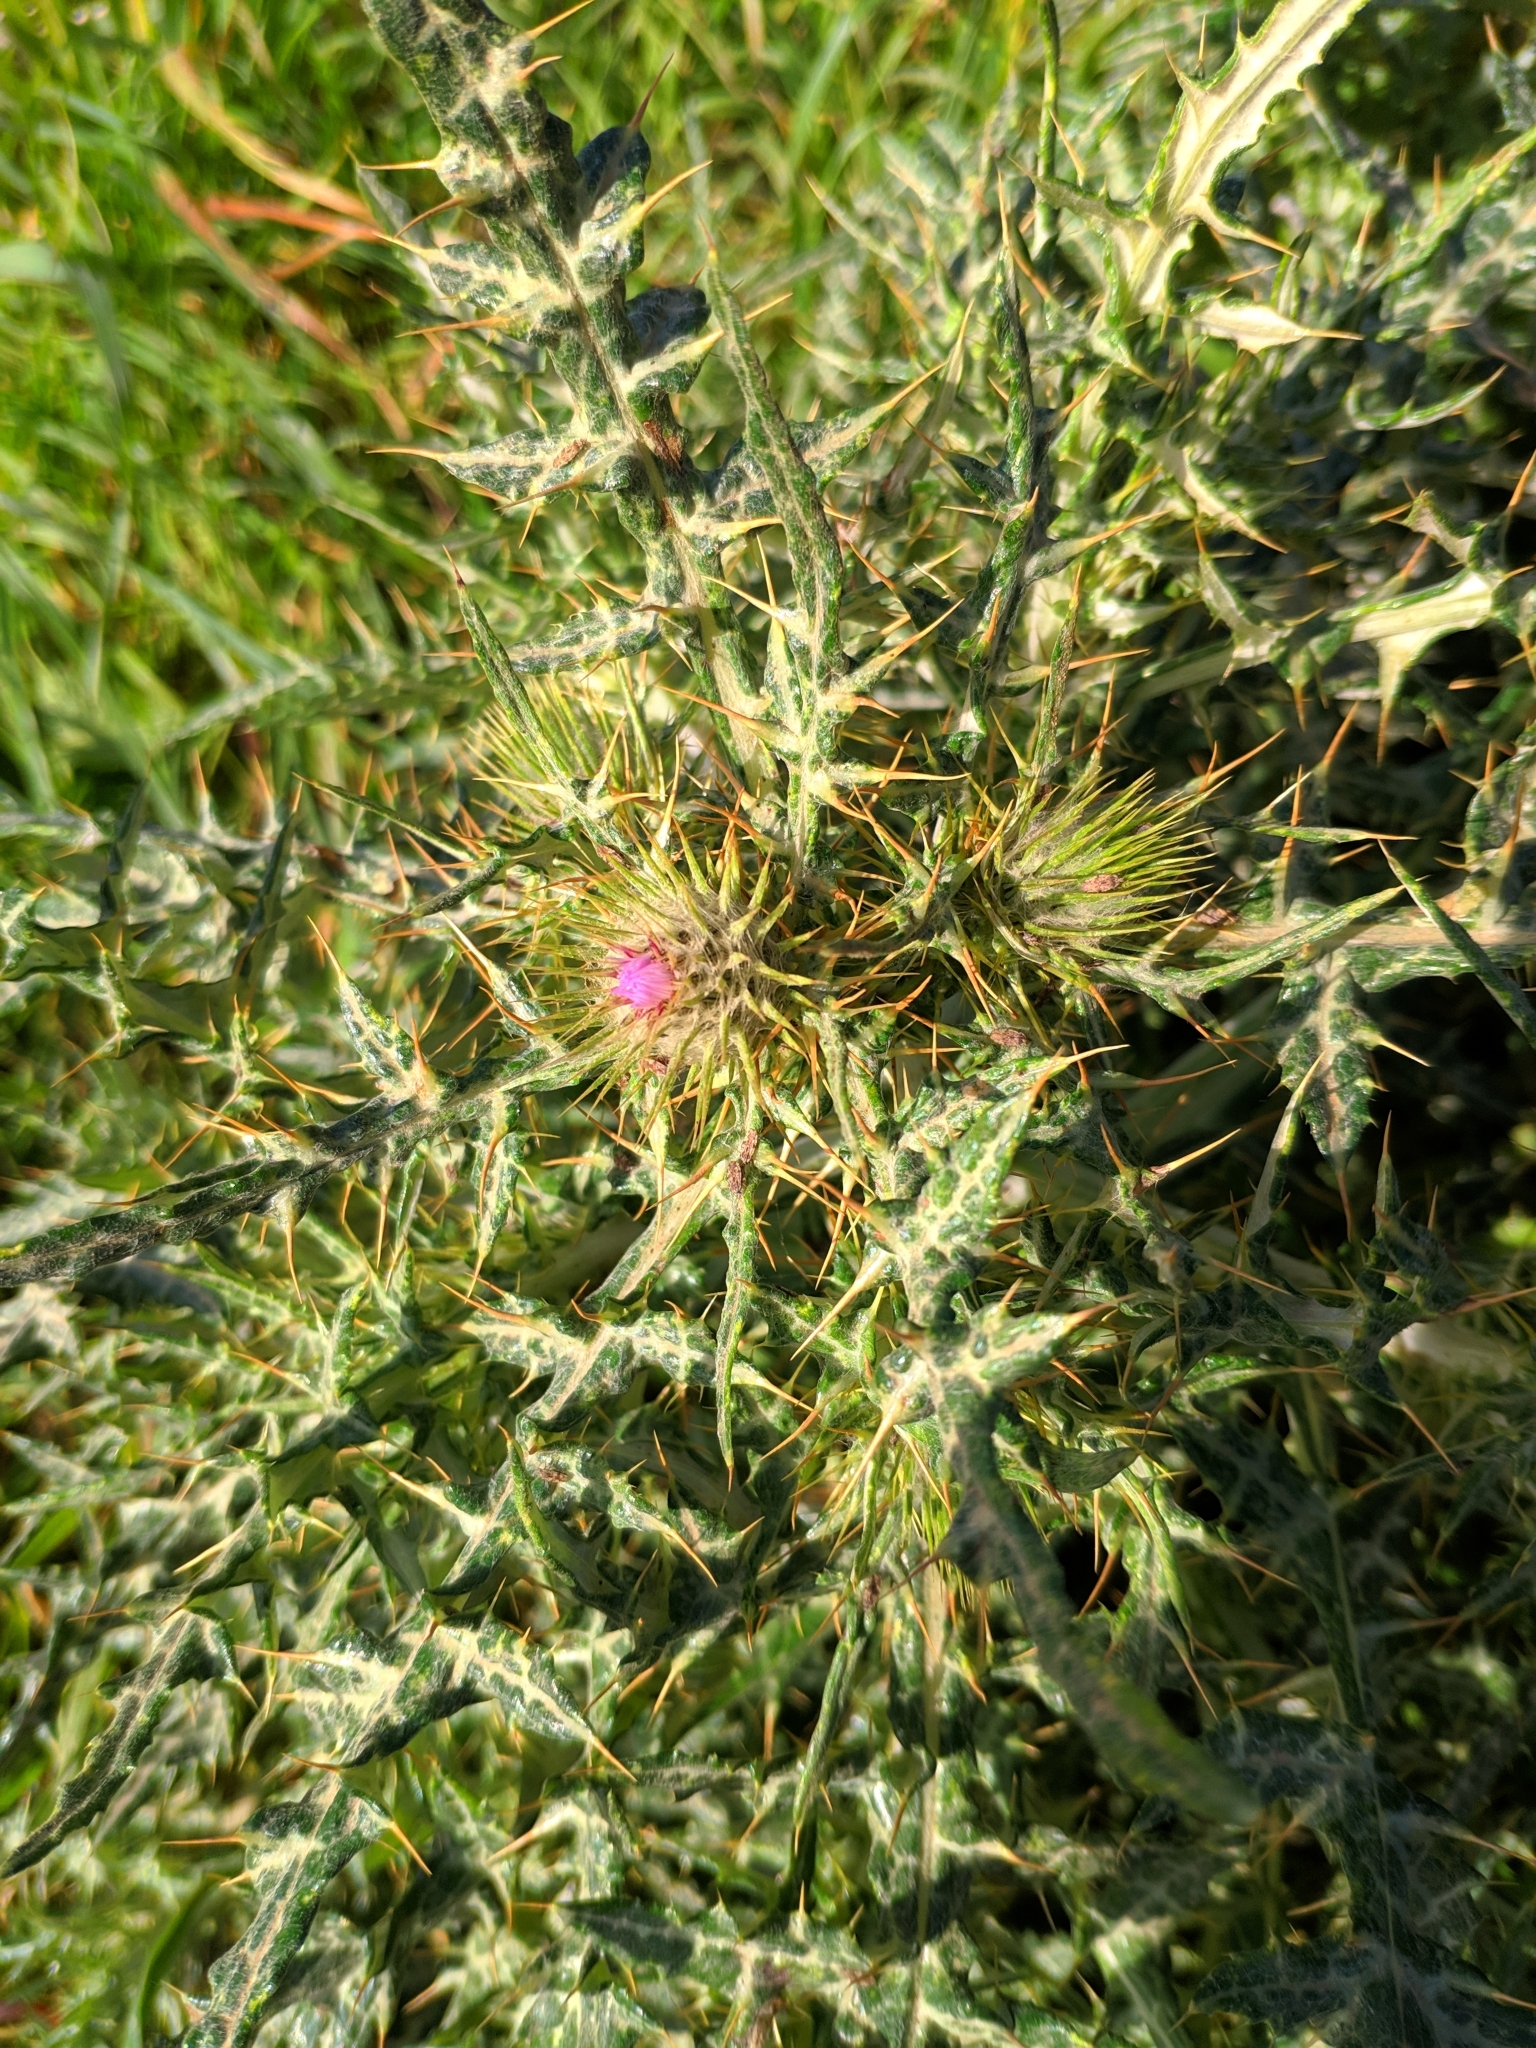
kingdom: Plantae
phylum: Tracheophyta
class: Magnoliopsida
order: Asterales
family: Asteraceae
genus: Galactites
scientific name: Galactites tomentosa
